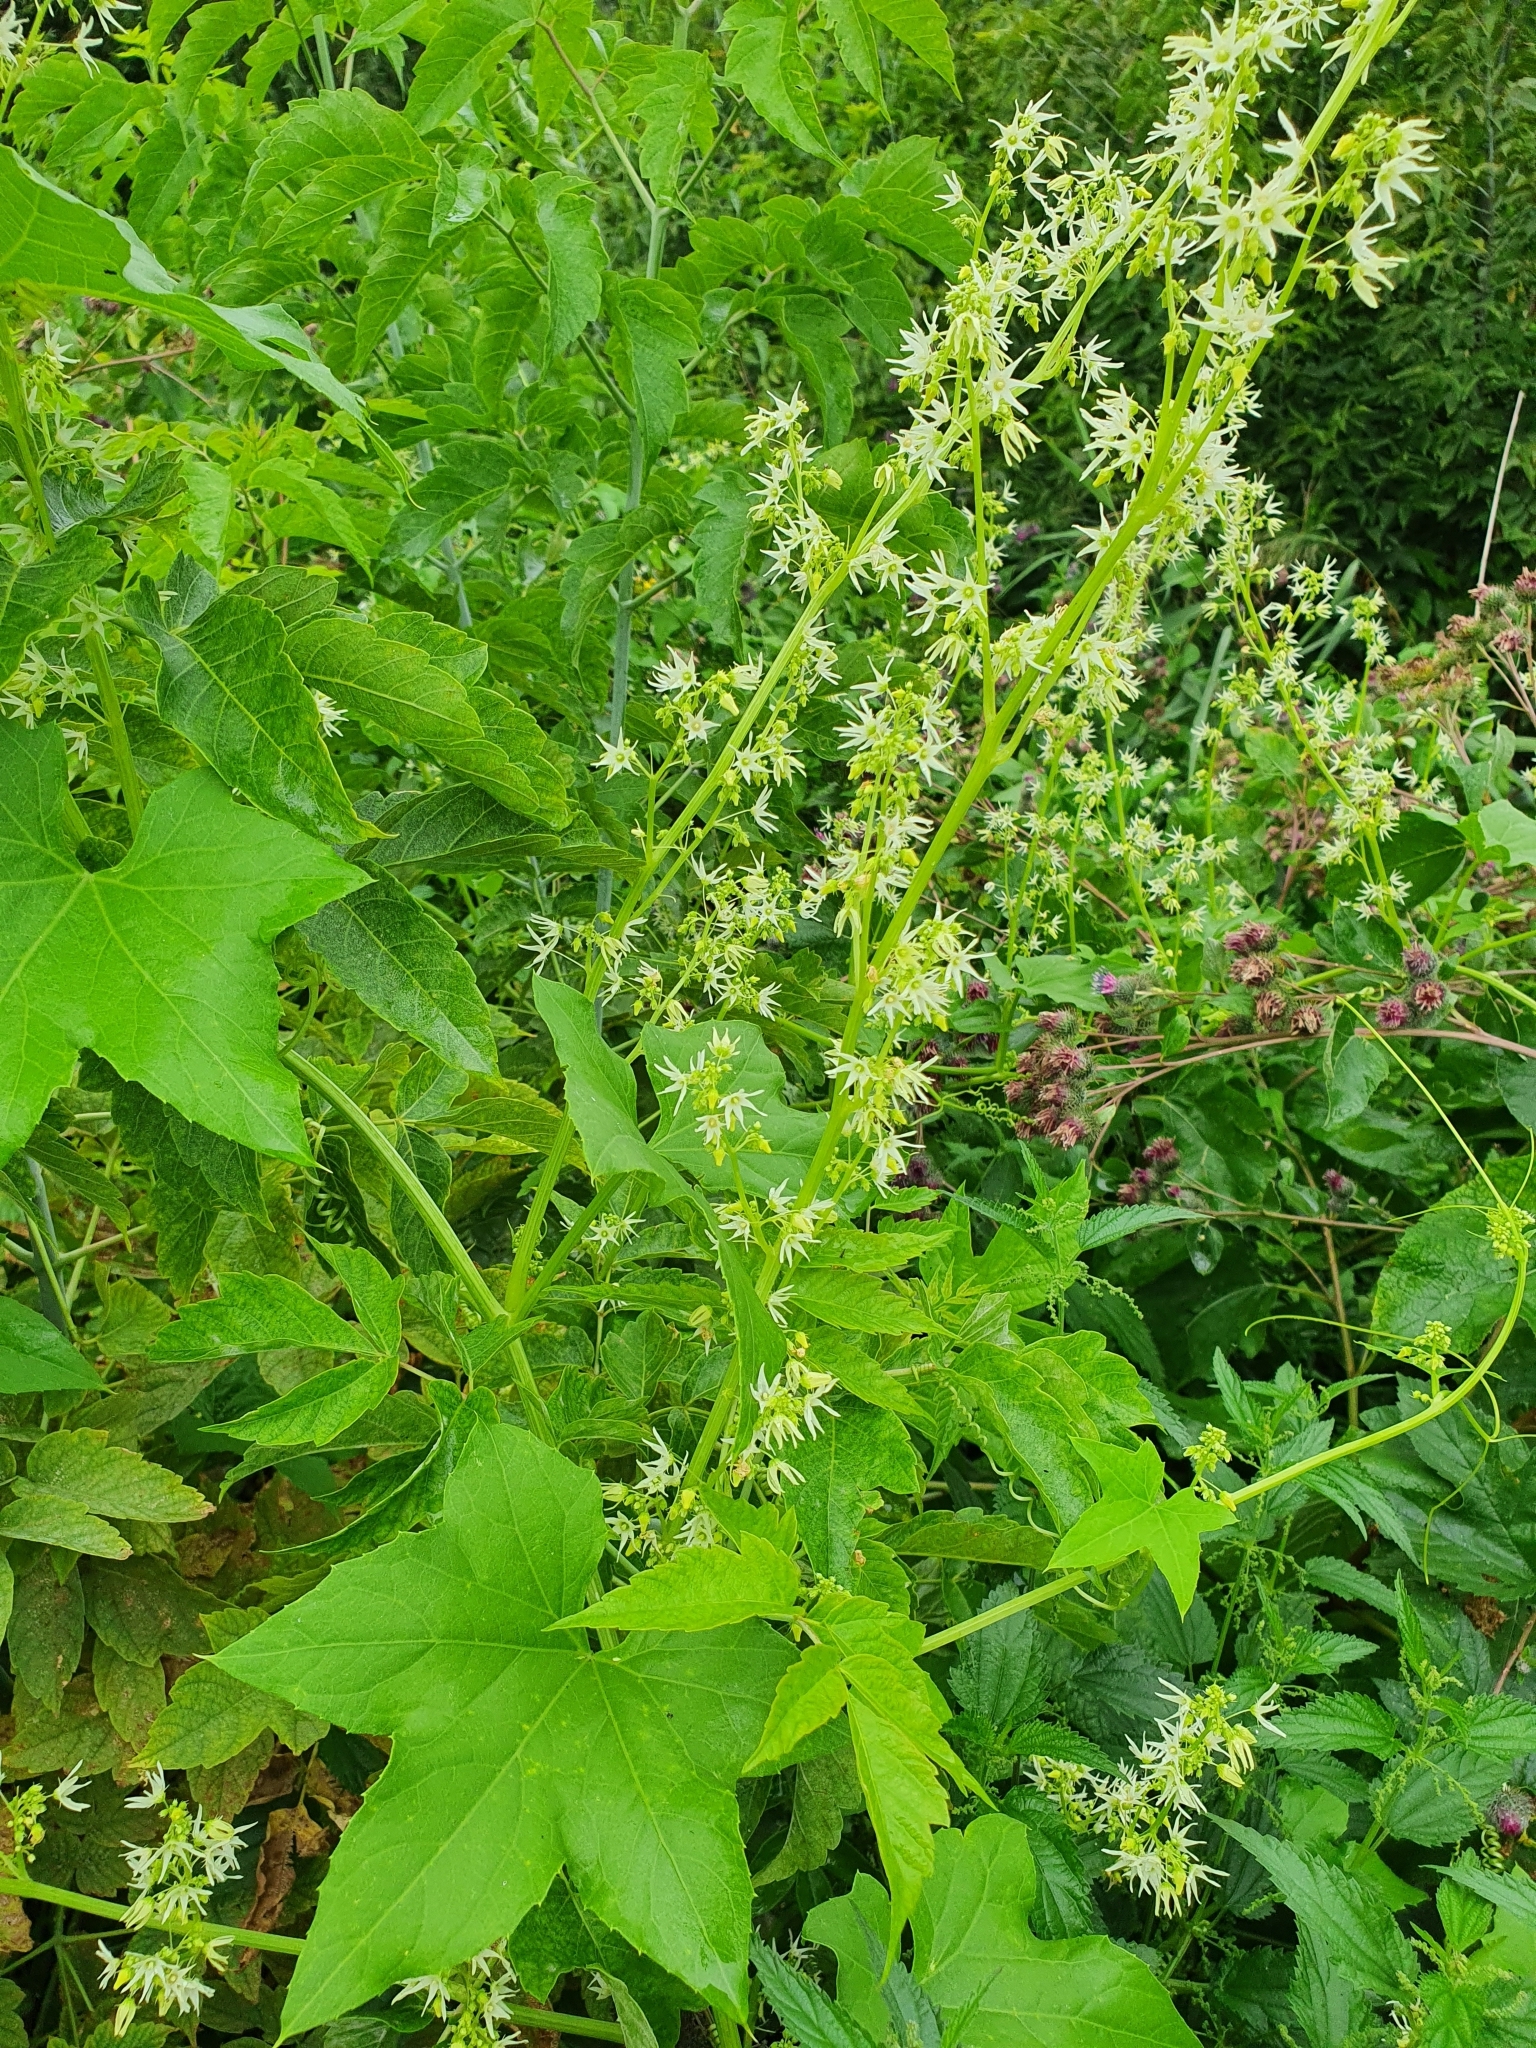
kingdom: Plantae
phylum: Tracheophyta
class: Magnoliopsida
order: Cucurbitales
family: Cucurbitaceae
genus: Echinocystis
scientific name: Echinocystis lobata
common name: Wild cucumber
